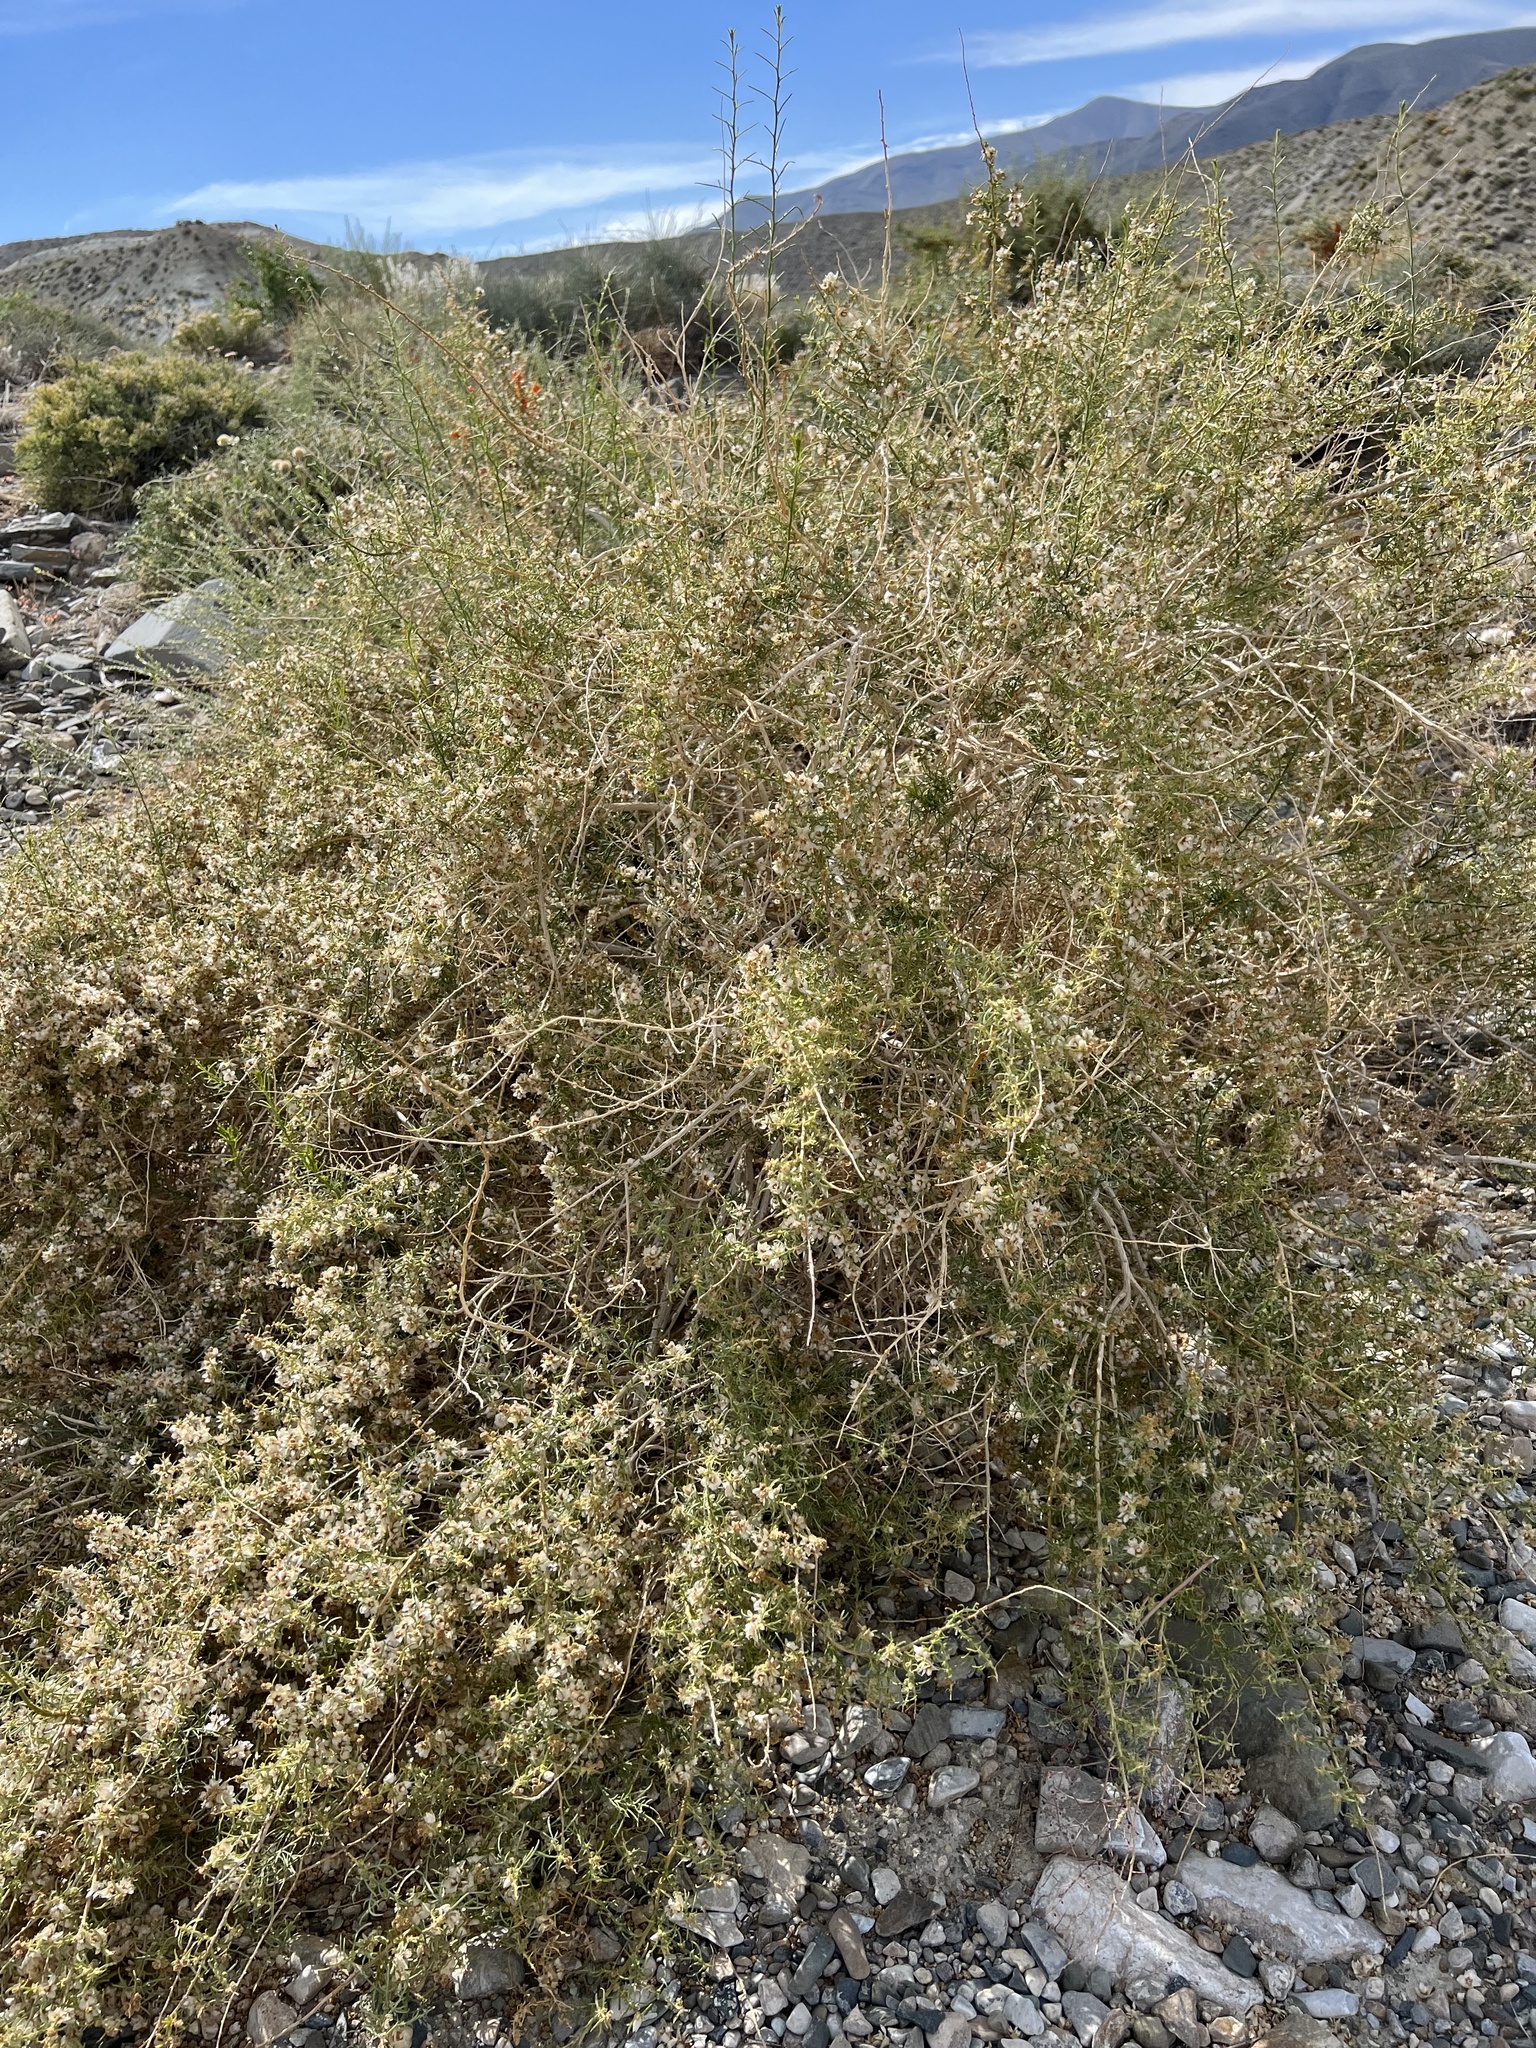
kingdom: Plantae
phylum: Tracheophyta
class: Magnoliopsida
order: Asterales
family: Asteraceae
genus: Ambrosia
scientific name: Ambrosia salsola
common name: Burrobrush
